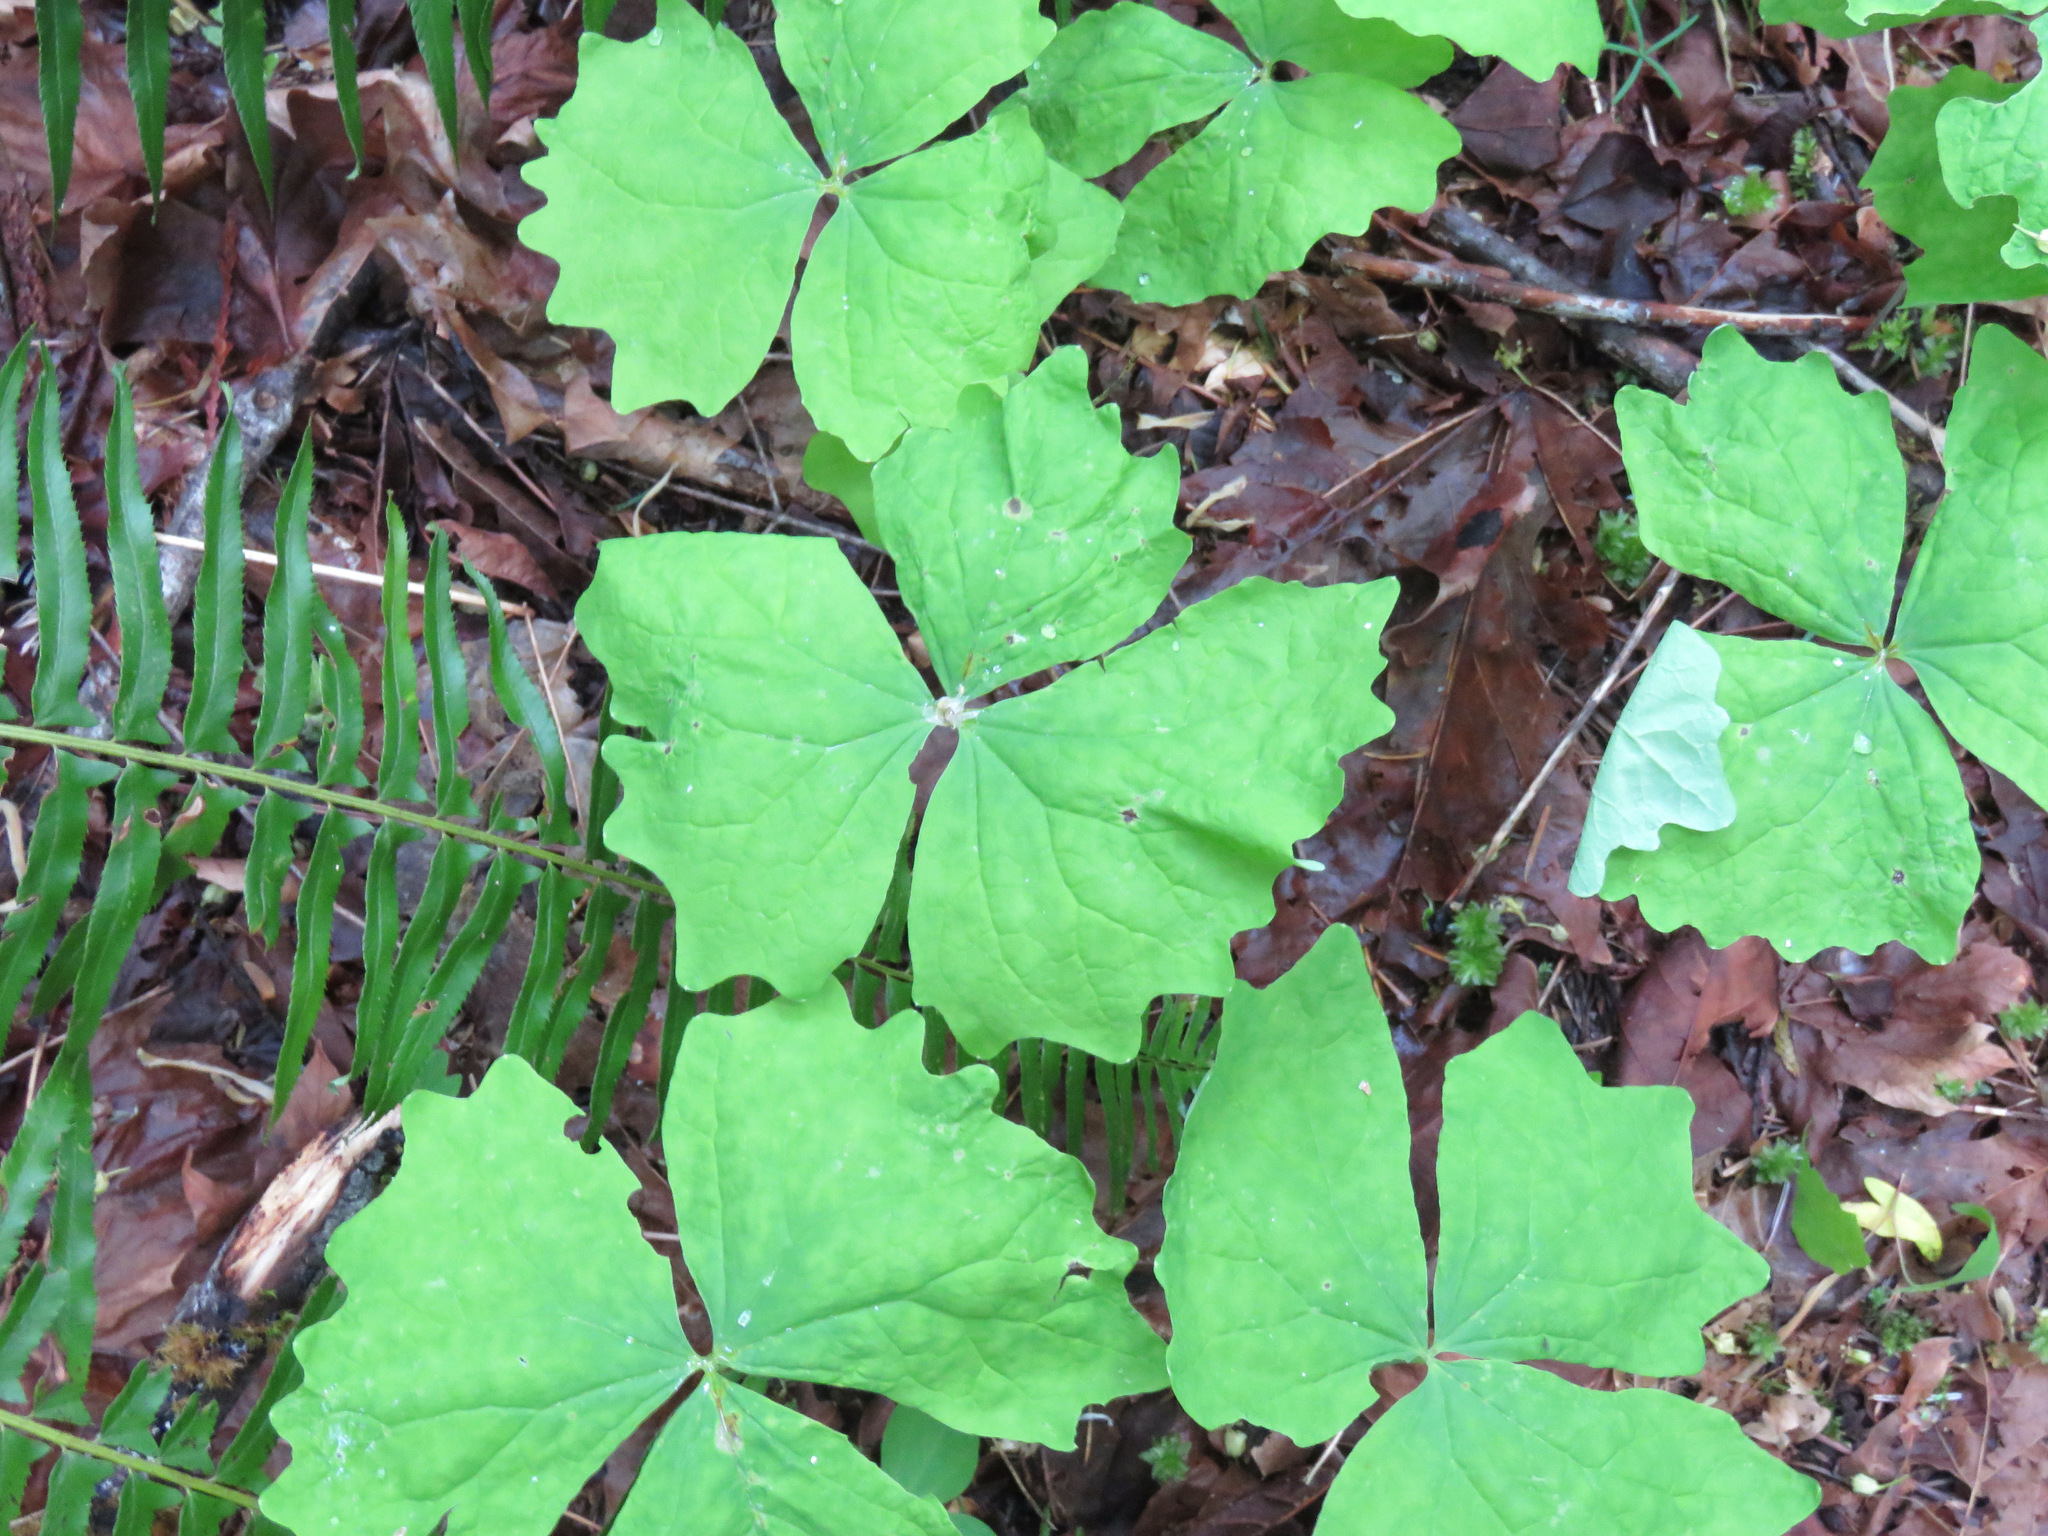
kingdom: Plantae
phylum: Tracheophyta
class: Magnoliopsida
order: Ranunculales
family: Berberidaceae
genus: Achlys
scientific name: Achlys triphylla
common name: Vanilla-leaf
